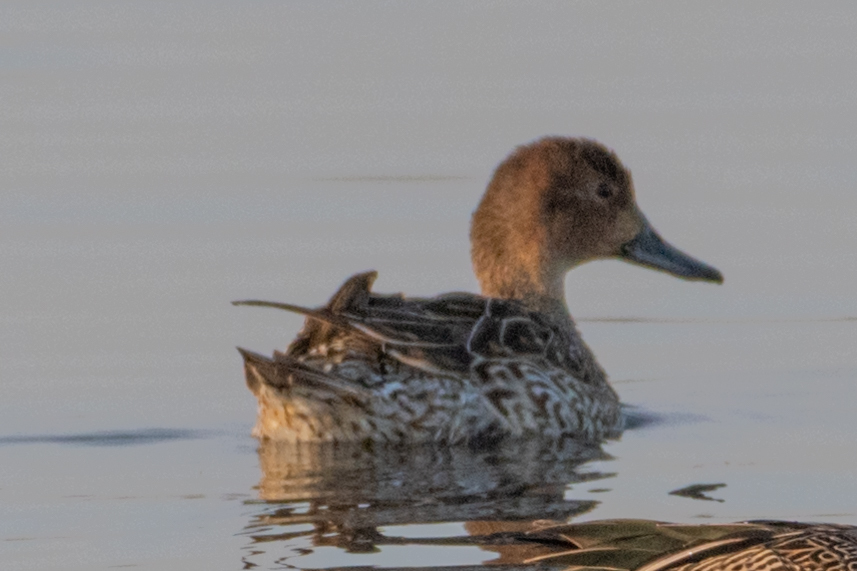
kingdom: Animalia
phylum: Chordata
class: Aves
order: Anseriformes
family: Anatidae
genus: Anas
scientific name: Anas acuta
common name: Northern pintail
